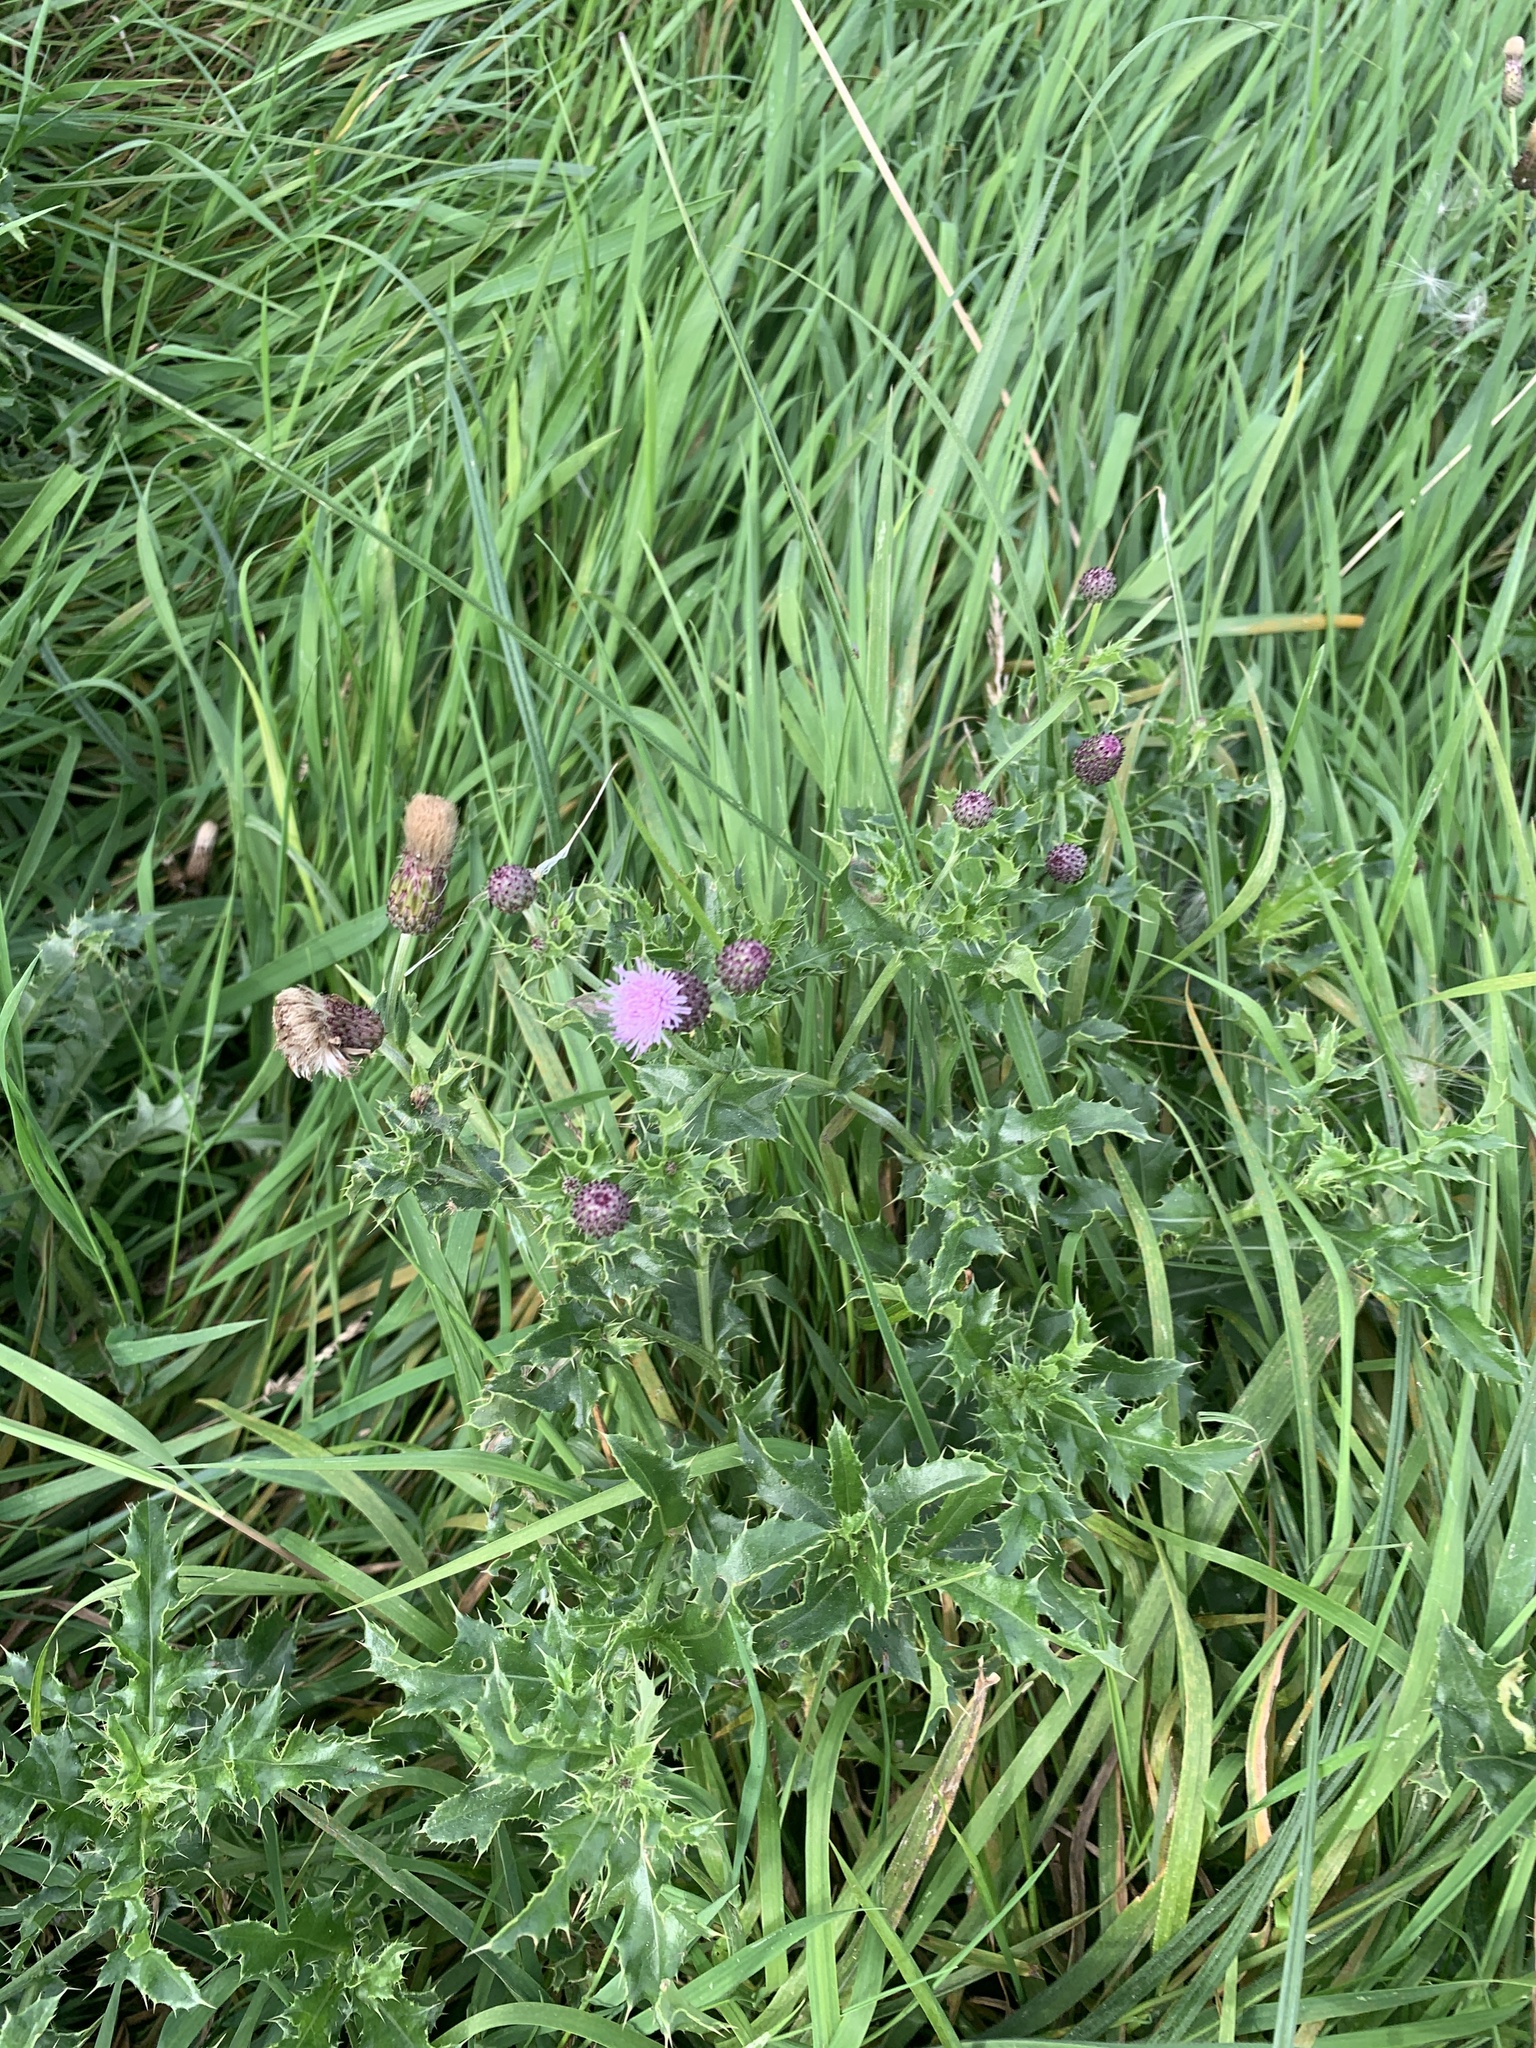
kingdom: Plantae
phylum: Tracheophyta
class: Magnoliopsida
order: Asterales
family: Asteraceae
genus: Cirsium
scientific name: Cirsium arvense
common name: Creeping thistle
